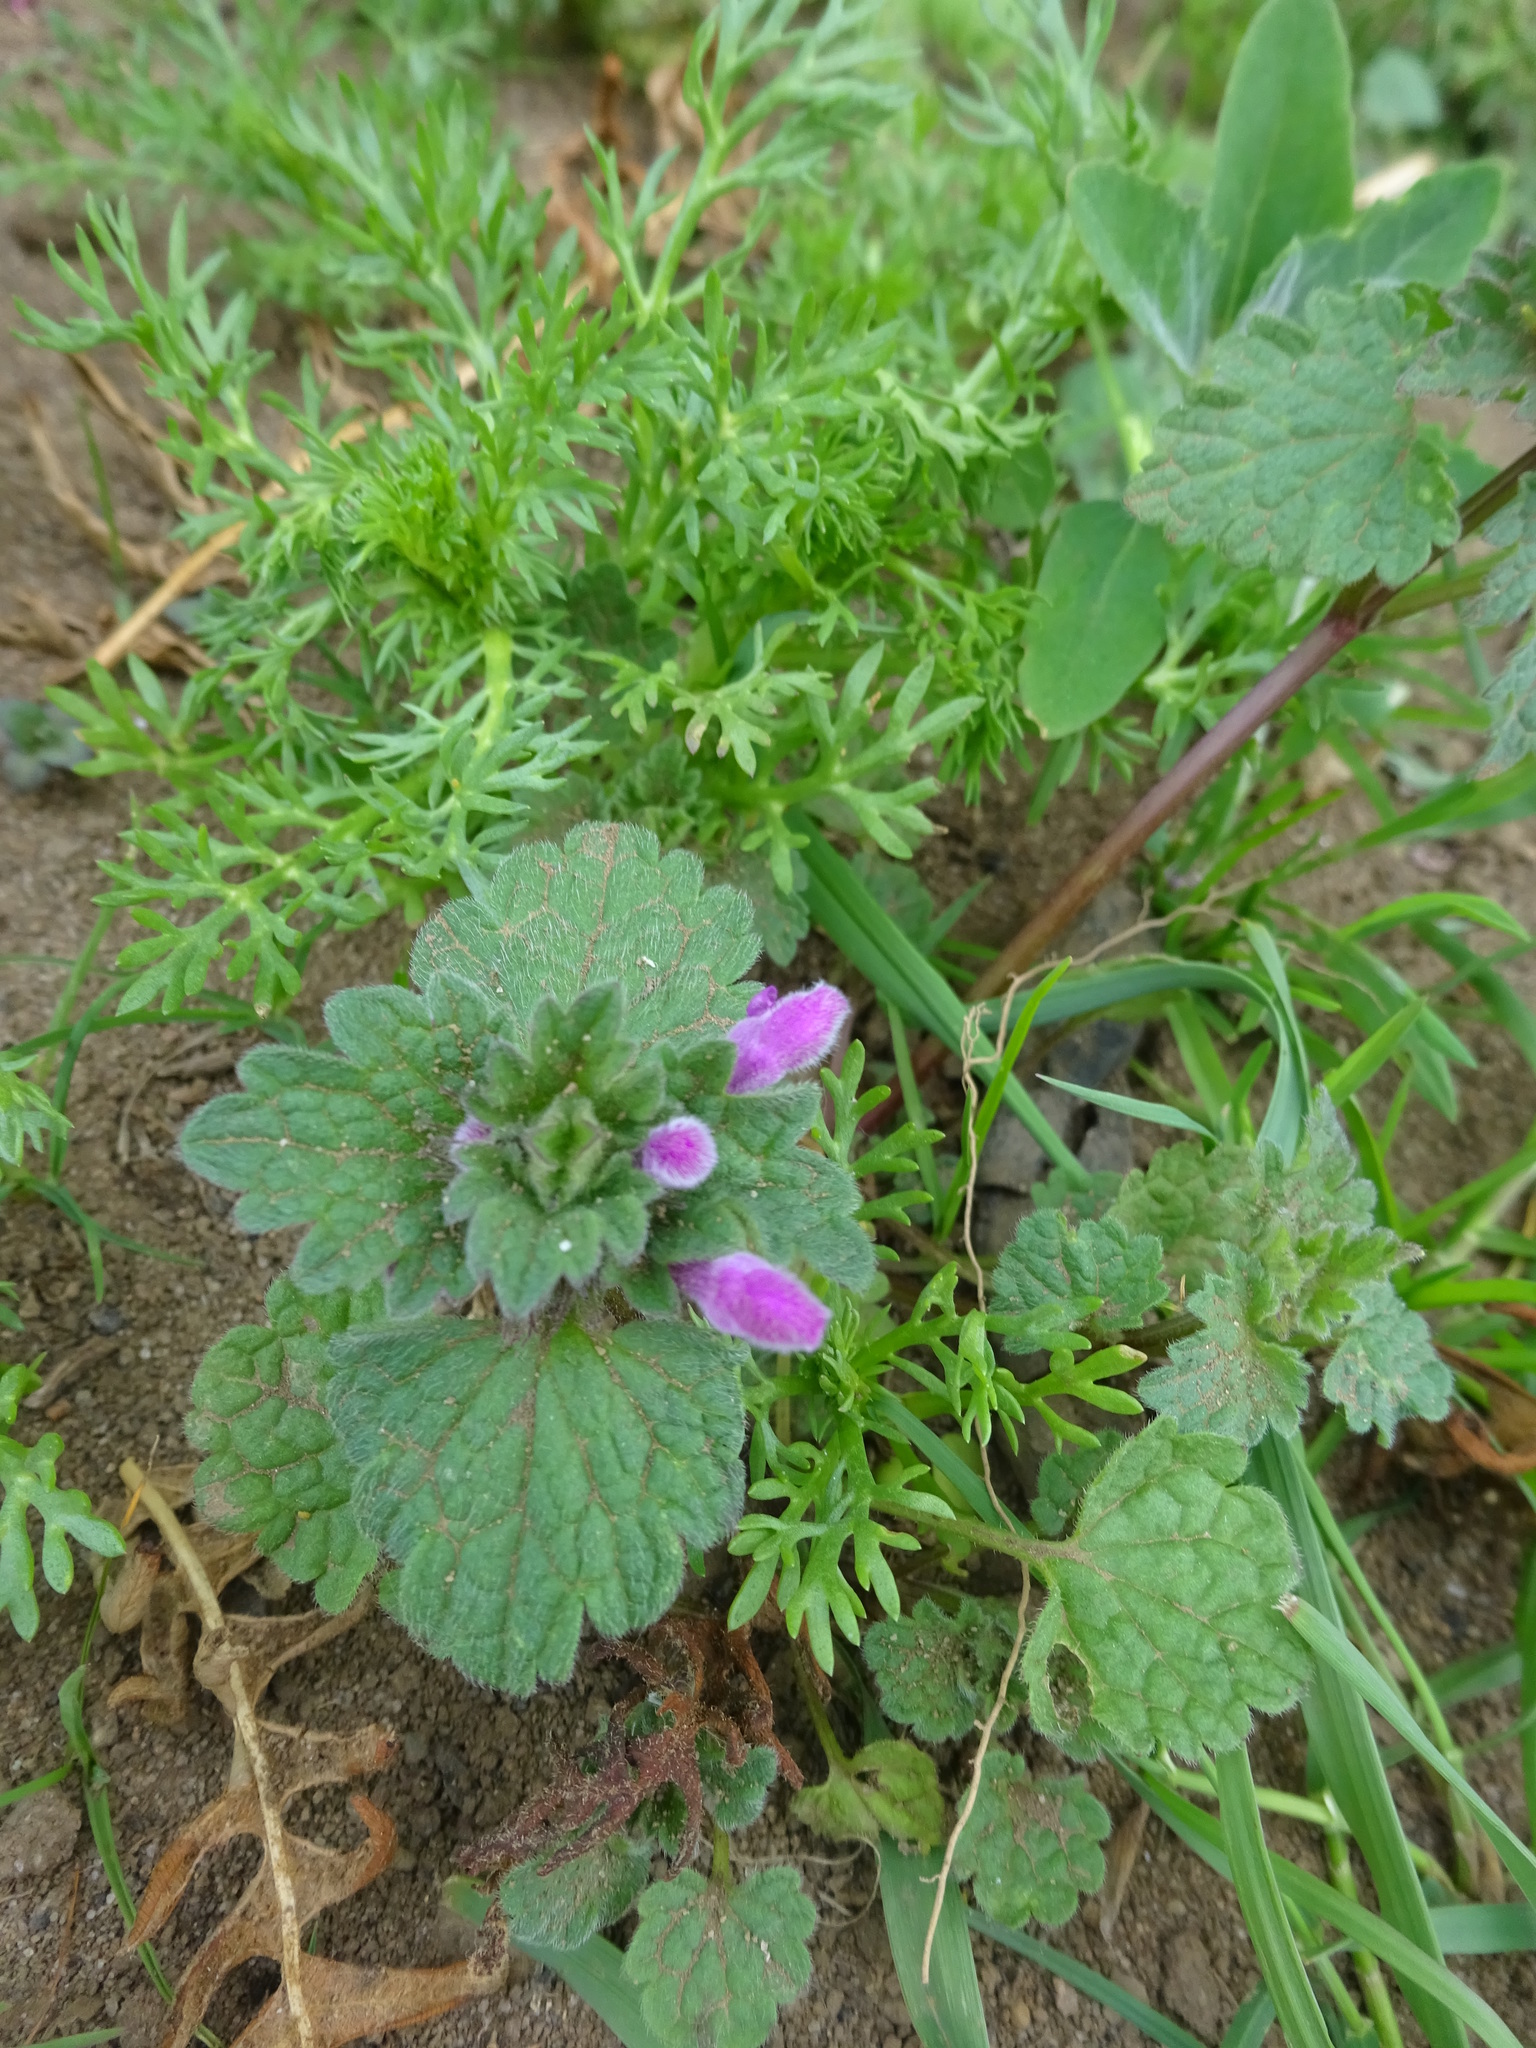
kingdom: Plantae
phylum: Tracheophyta
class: Magnoliopsida
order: Lamiales
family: Lamiaceae
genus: Lamium
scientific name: Lamium purpureum
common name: Red dead-nettle
